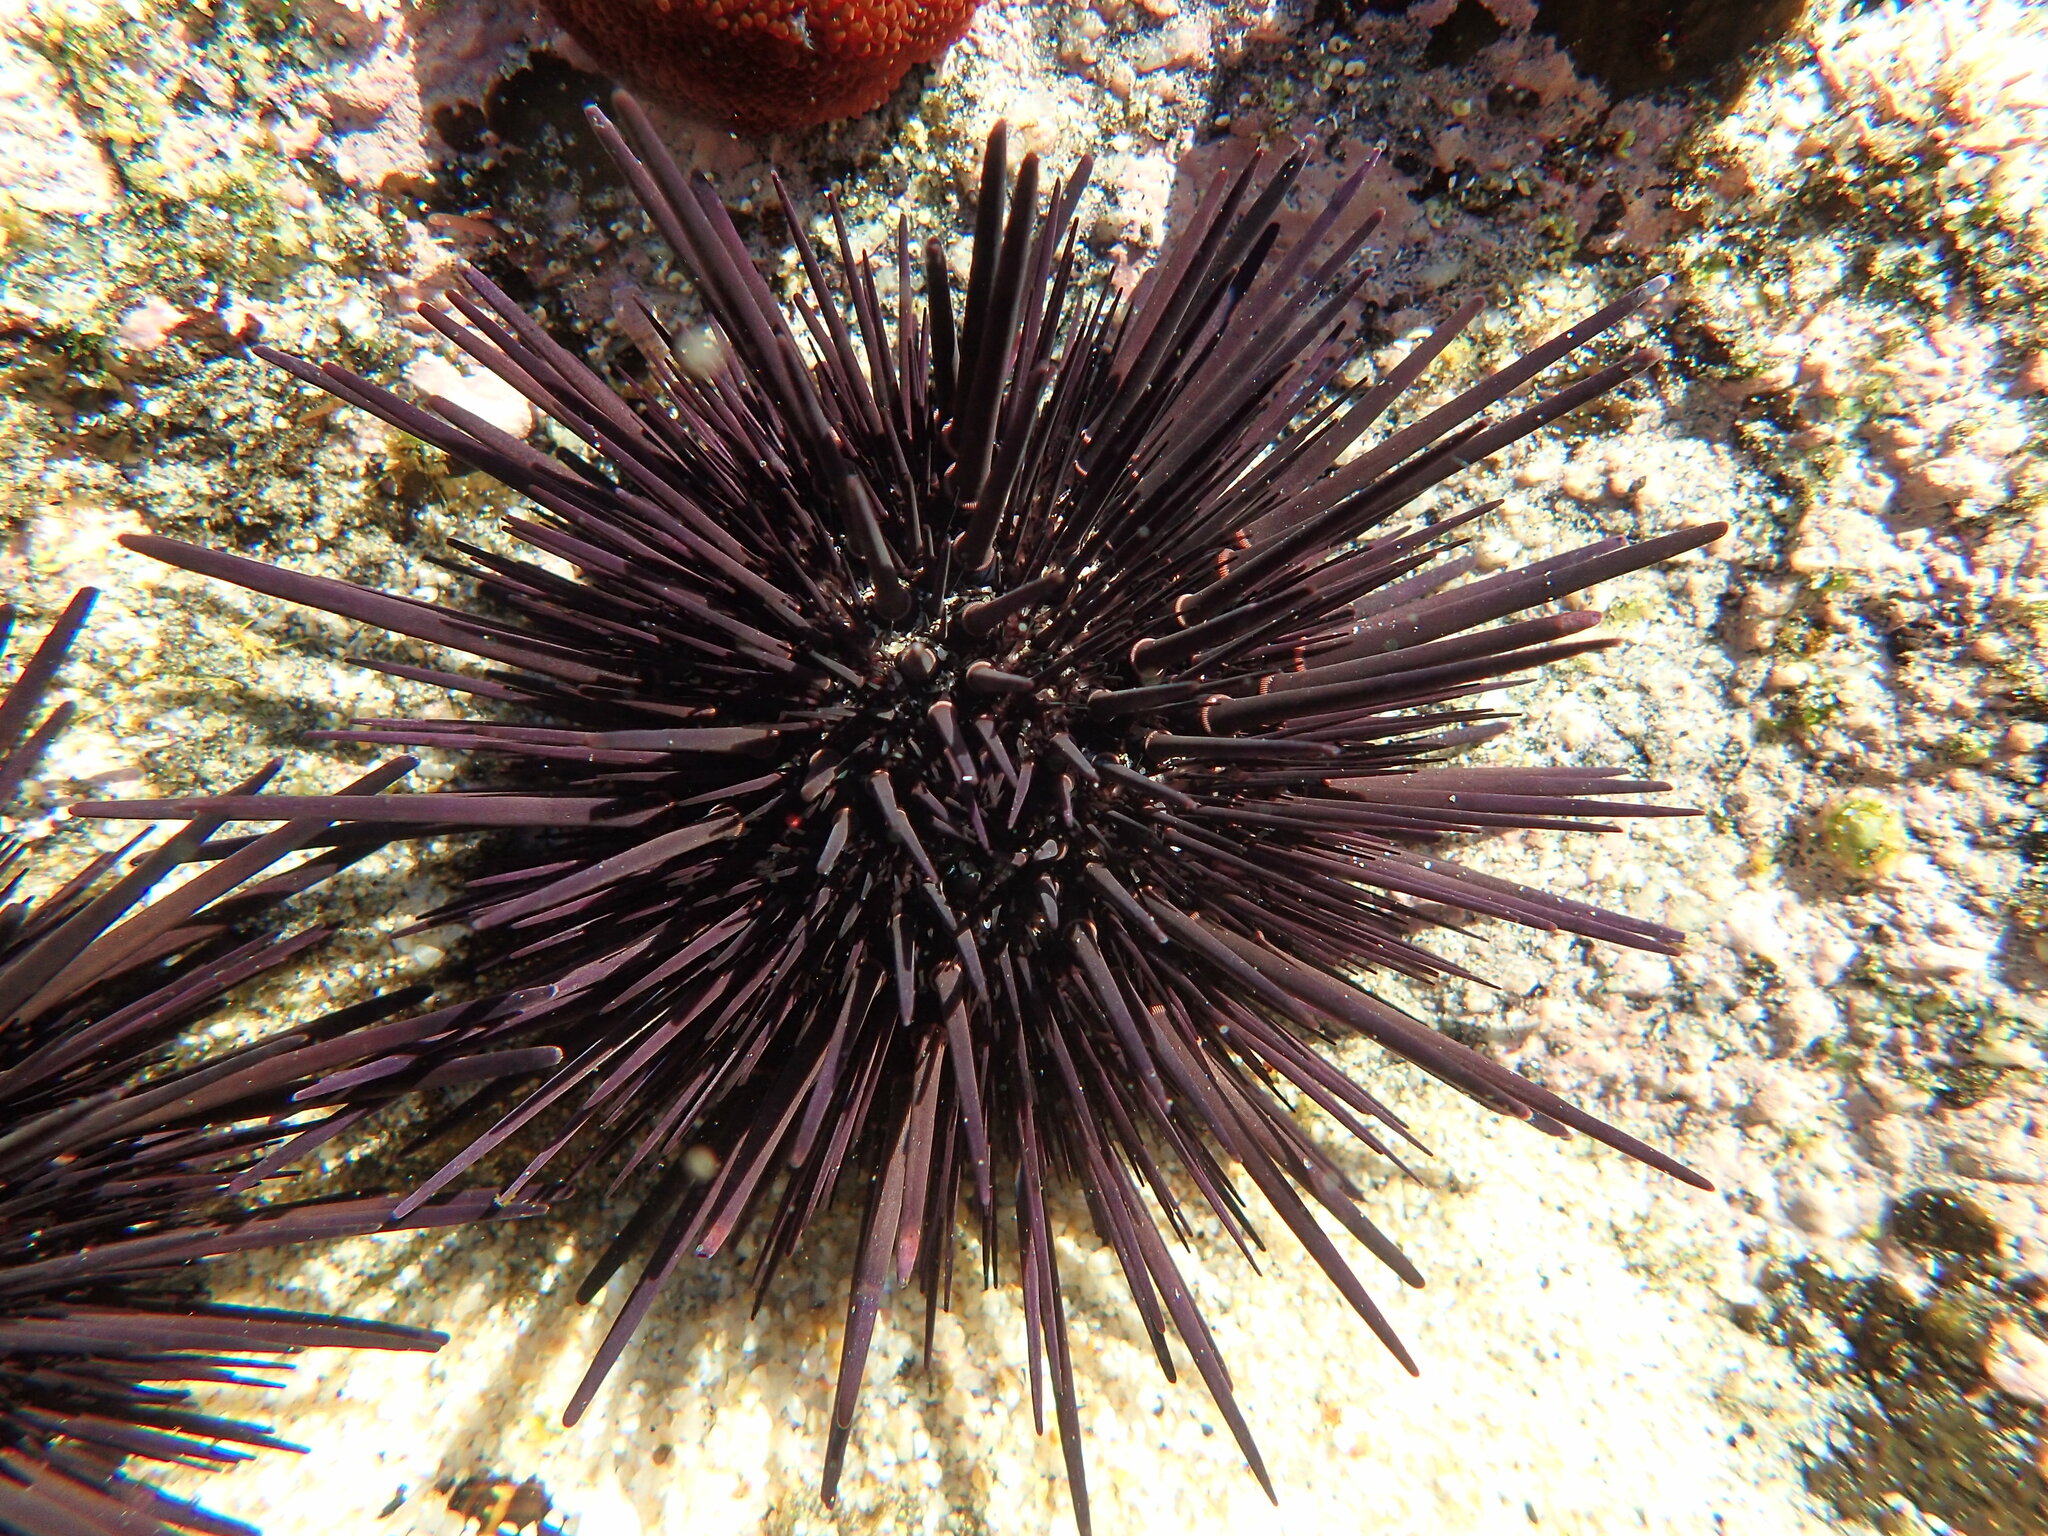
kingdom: Animalia
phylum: Echinodermata
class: Echinoidea
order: Camarodonta
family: Echinometridae
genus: Echinometra
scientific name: Echinometra vanbrunti
